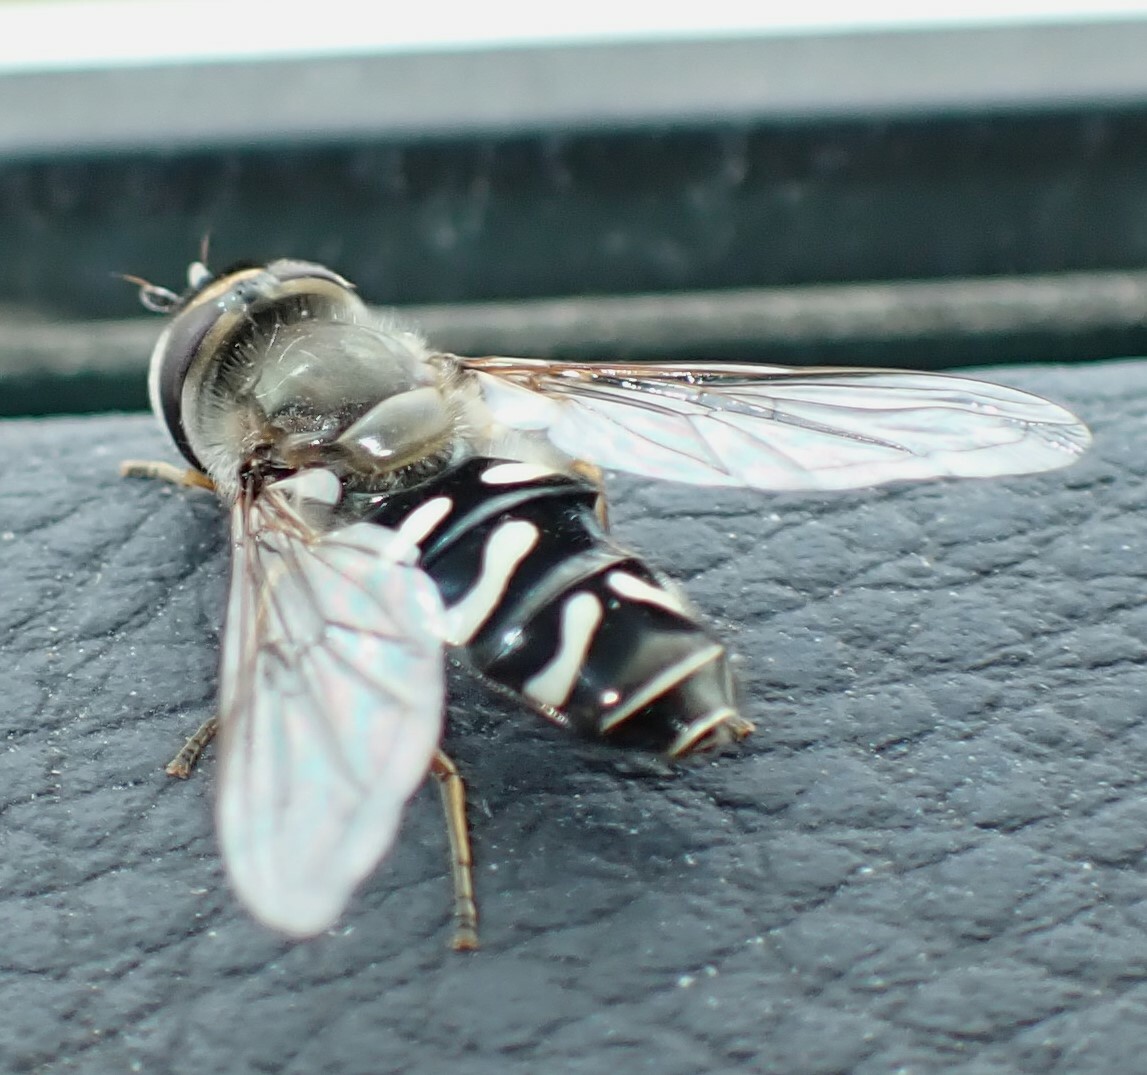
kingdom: Animalia
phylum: Arthropoda
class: Insecta
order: Diptera
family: Syrphidae
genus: Scaeva
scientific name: Scaeva affinis
